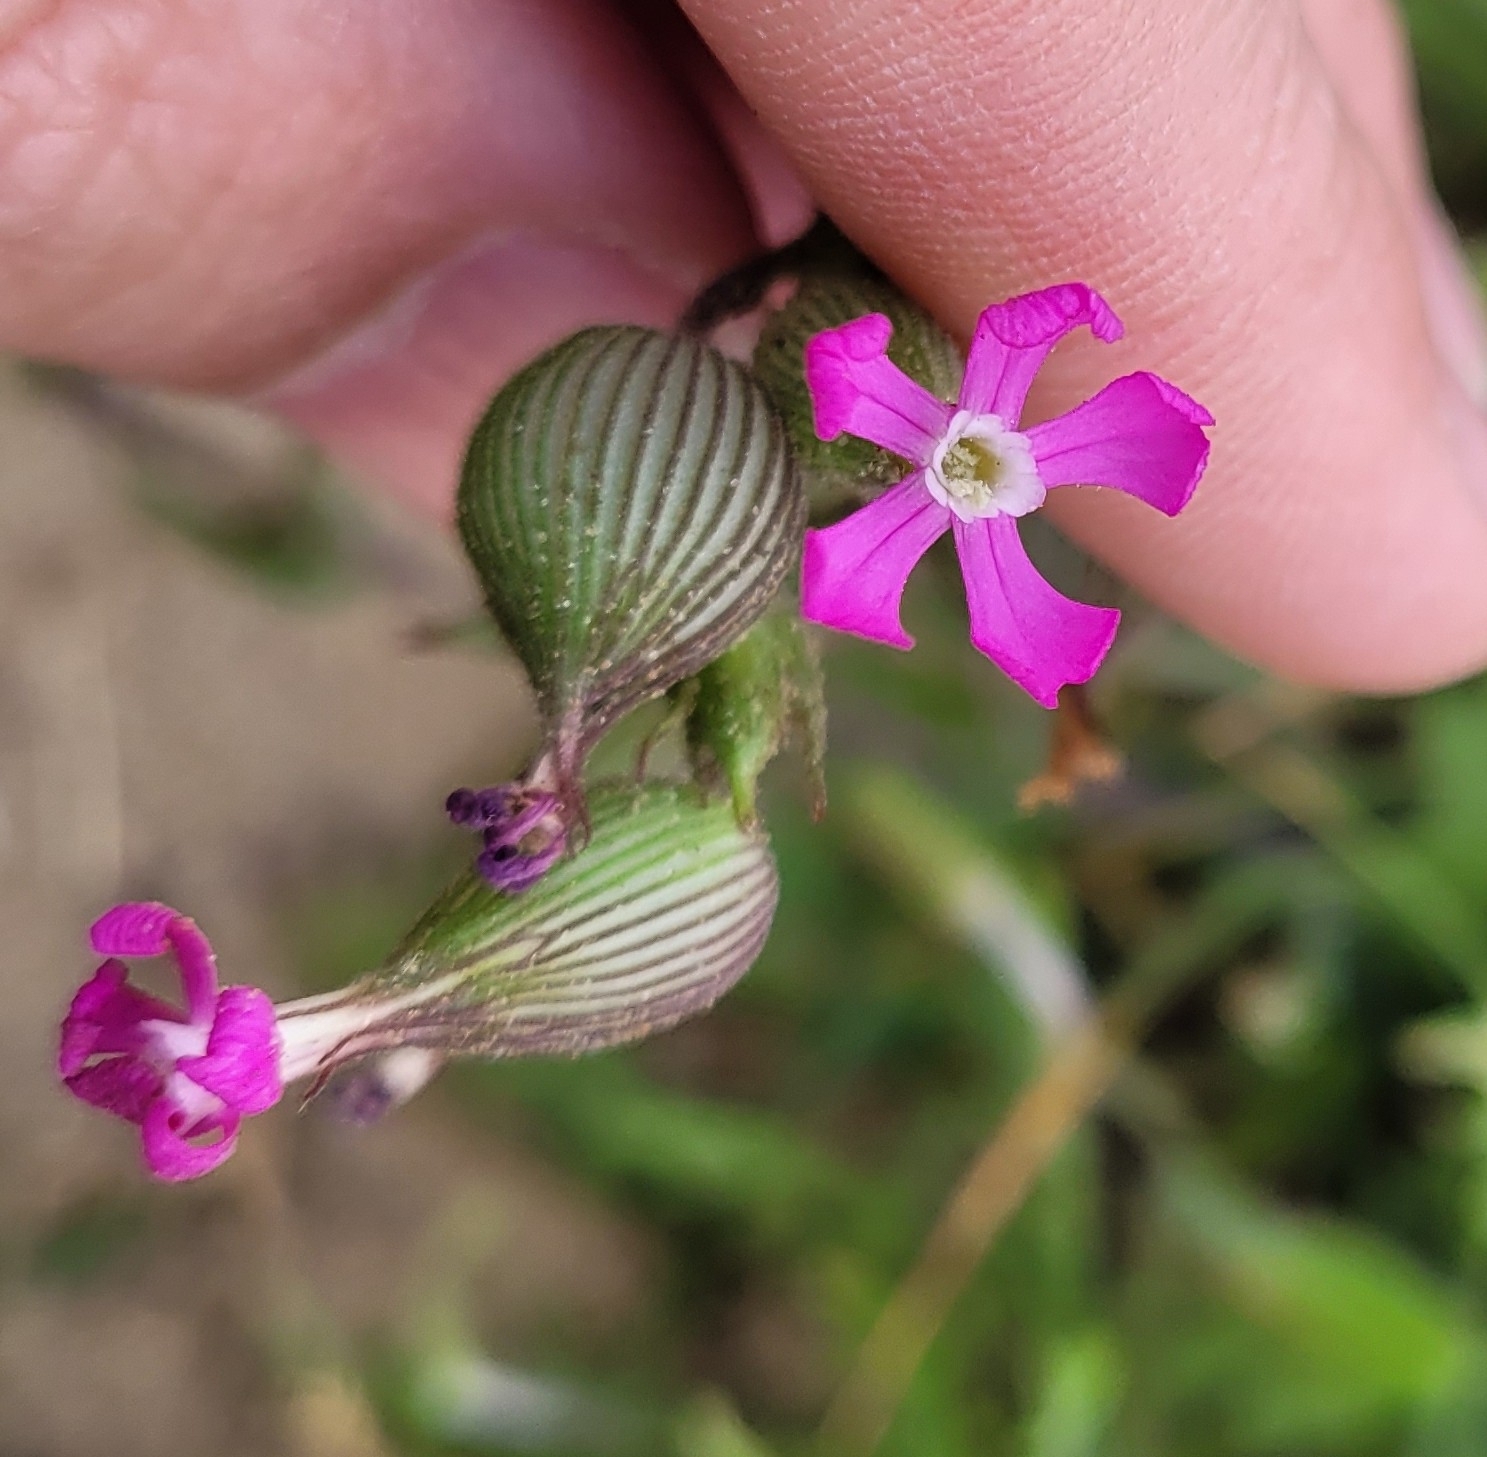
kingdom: Plantae
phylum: Tracheophyta
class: Magnoliopsida
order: Caryophyllales
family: Caryophyllaceae
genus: Silene
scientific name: Silene conica
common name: Sand catchfly
